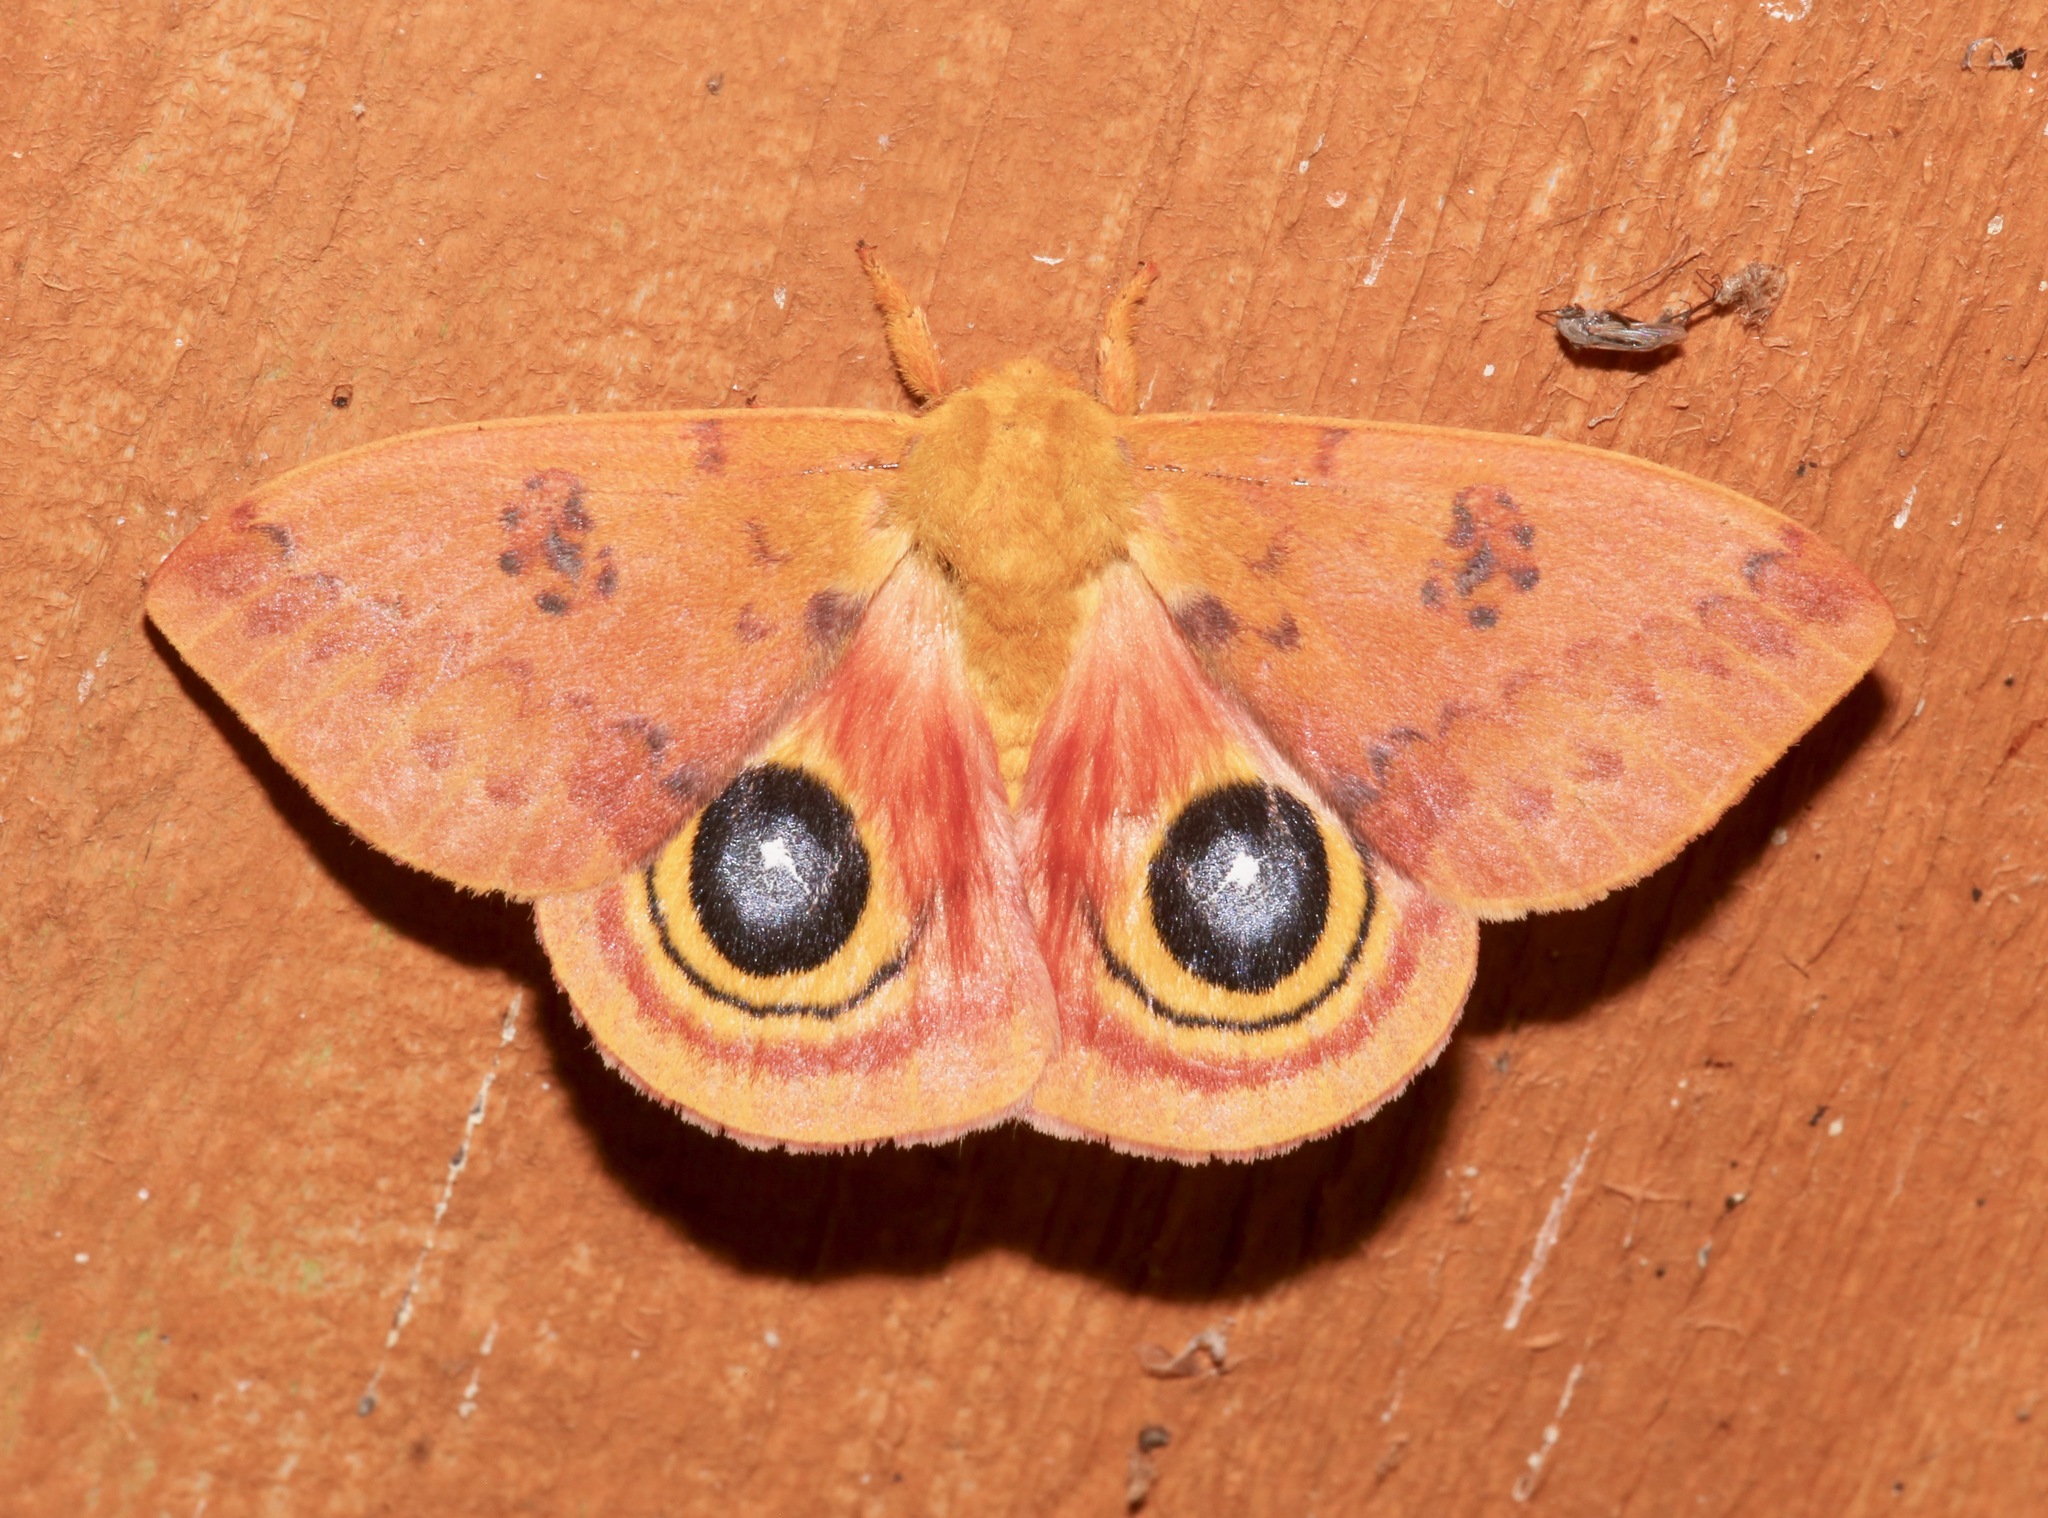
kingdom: Animalia
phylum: Arthropoda
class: Insecta
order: Lepidoptera
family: Saturniidae
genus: Automeris
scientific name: Automeris io
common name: Io moth
